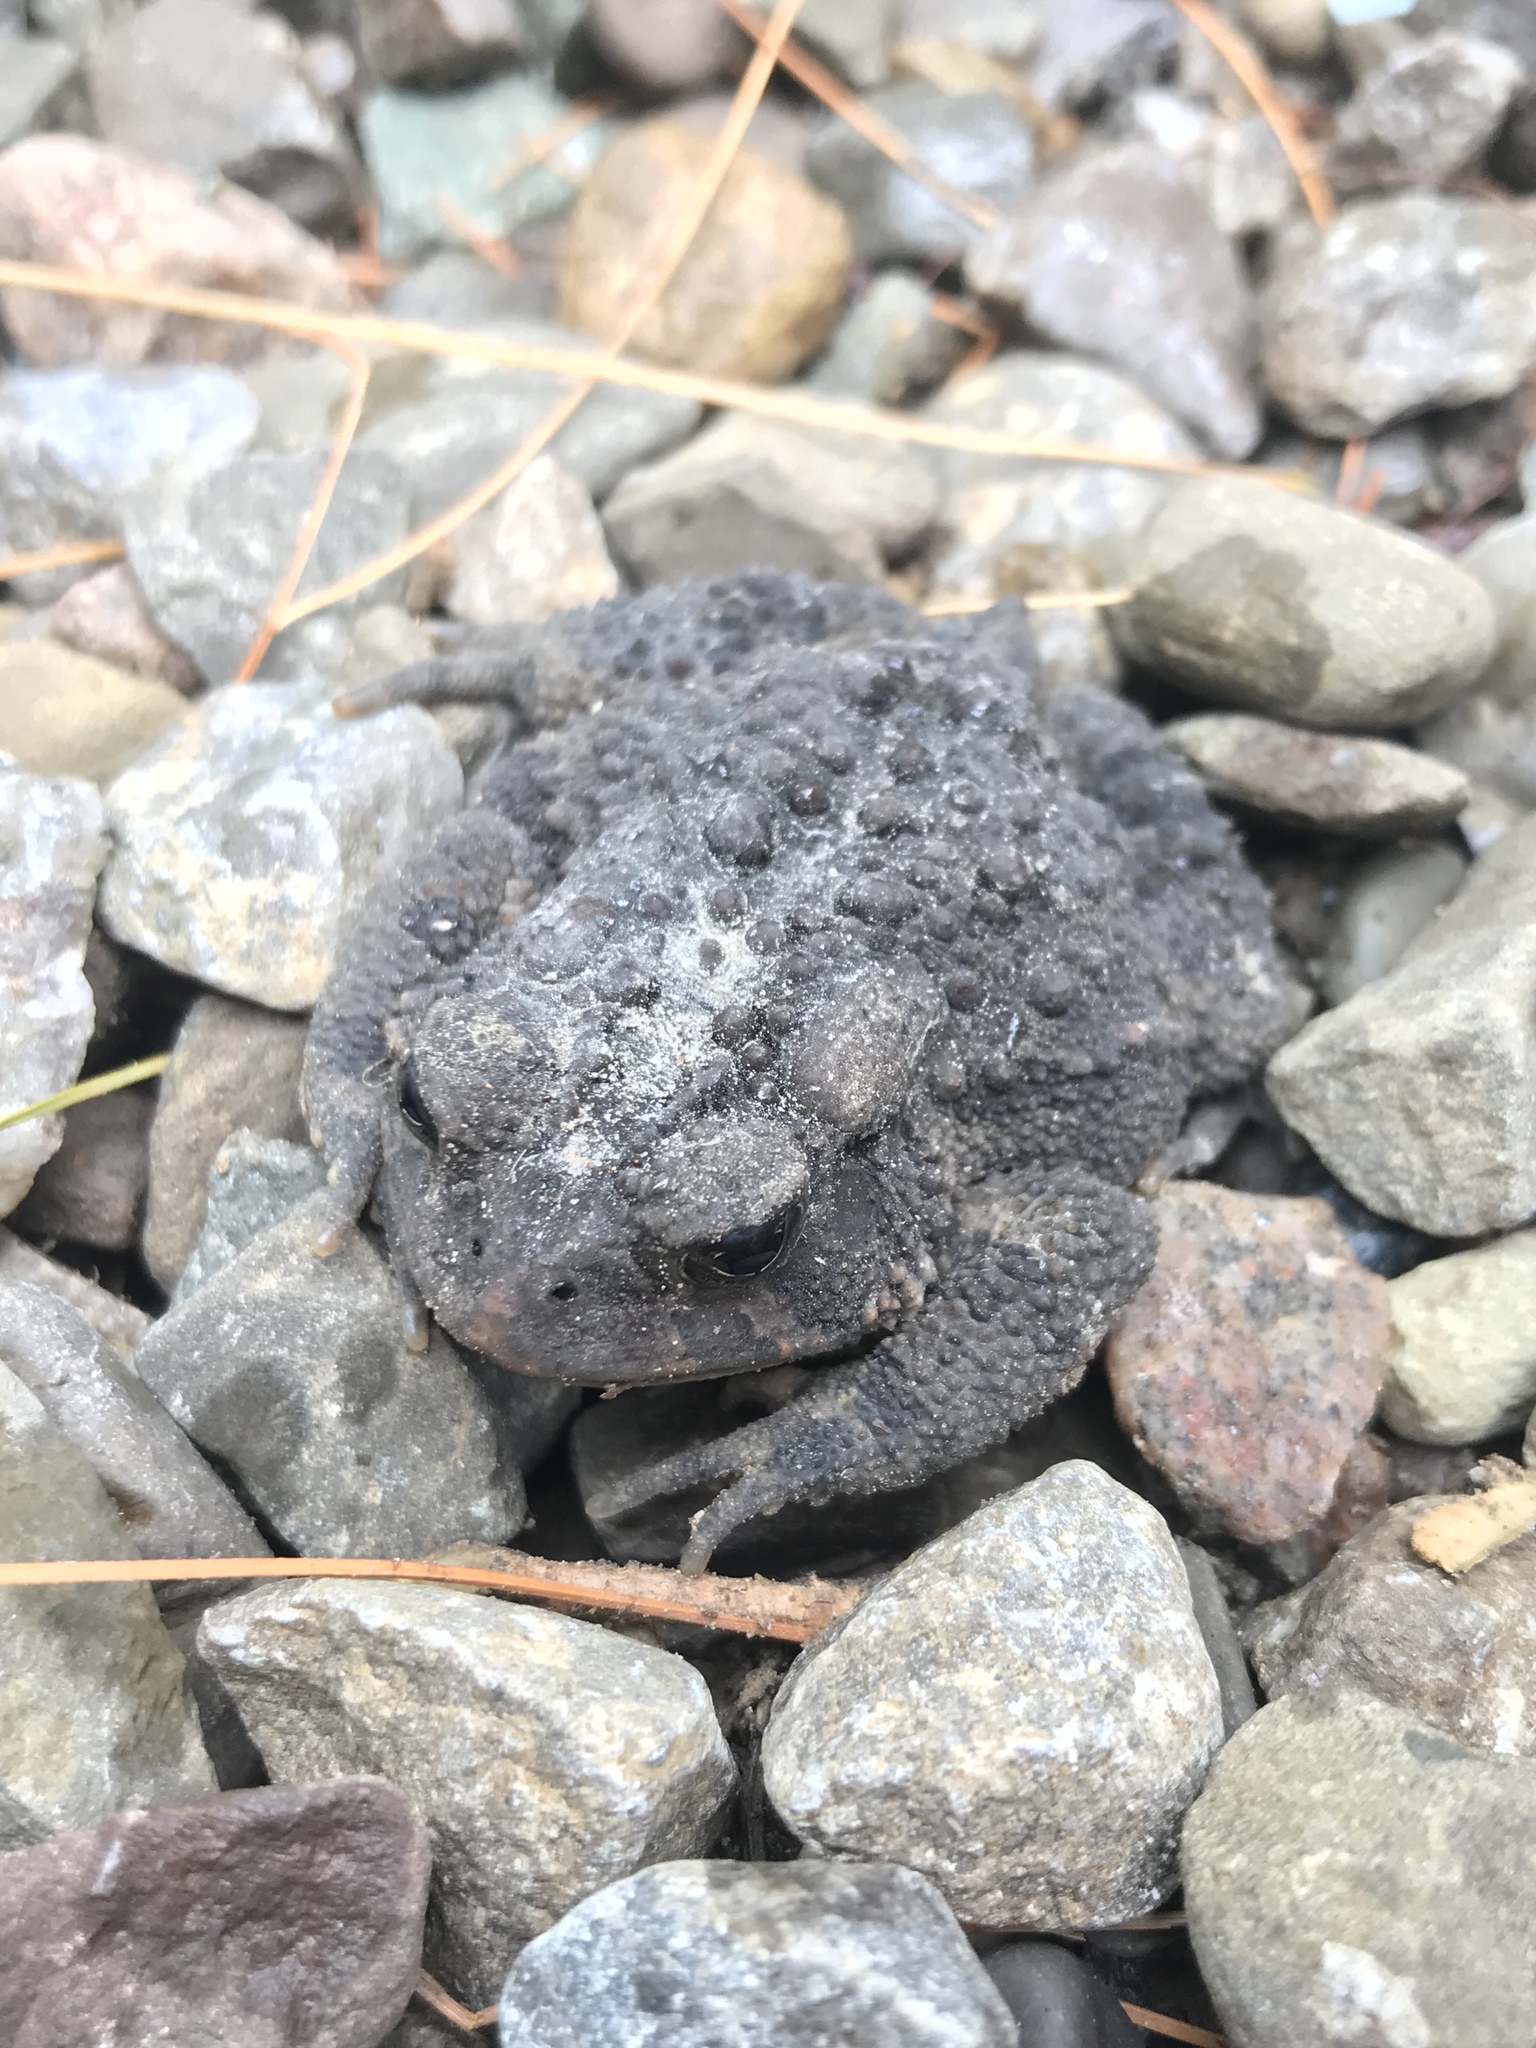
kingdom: Animalia
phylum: Chordata
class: Amphibia
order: Anura
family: Bufonidae
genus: Anaxyrus
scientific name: Anaxyrus americanus
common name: American toad
